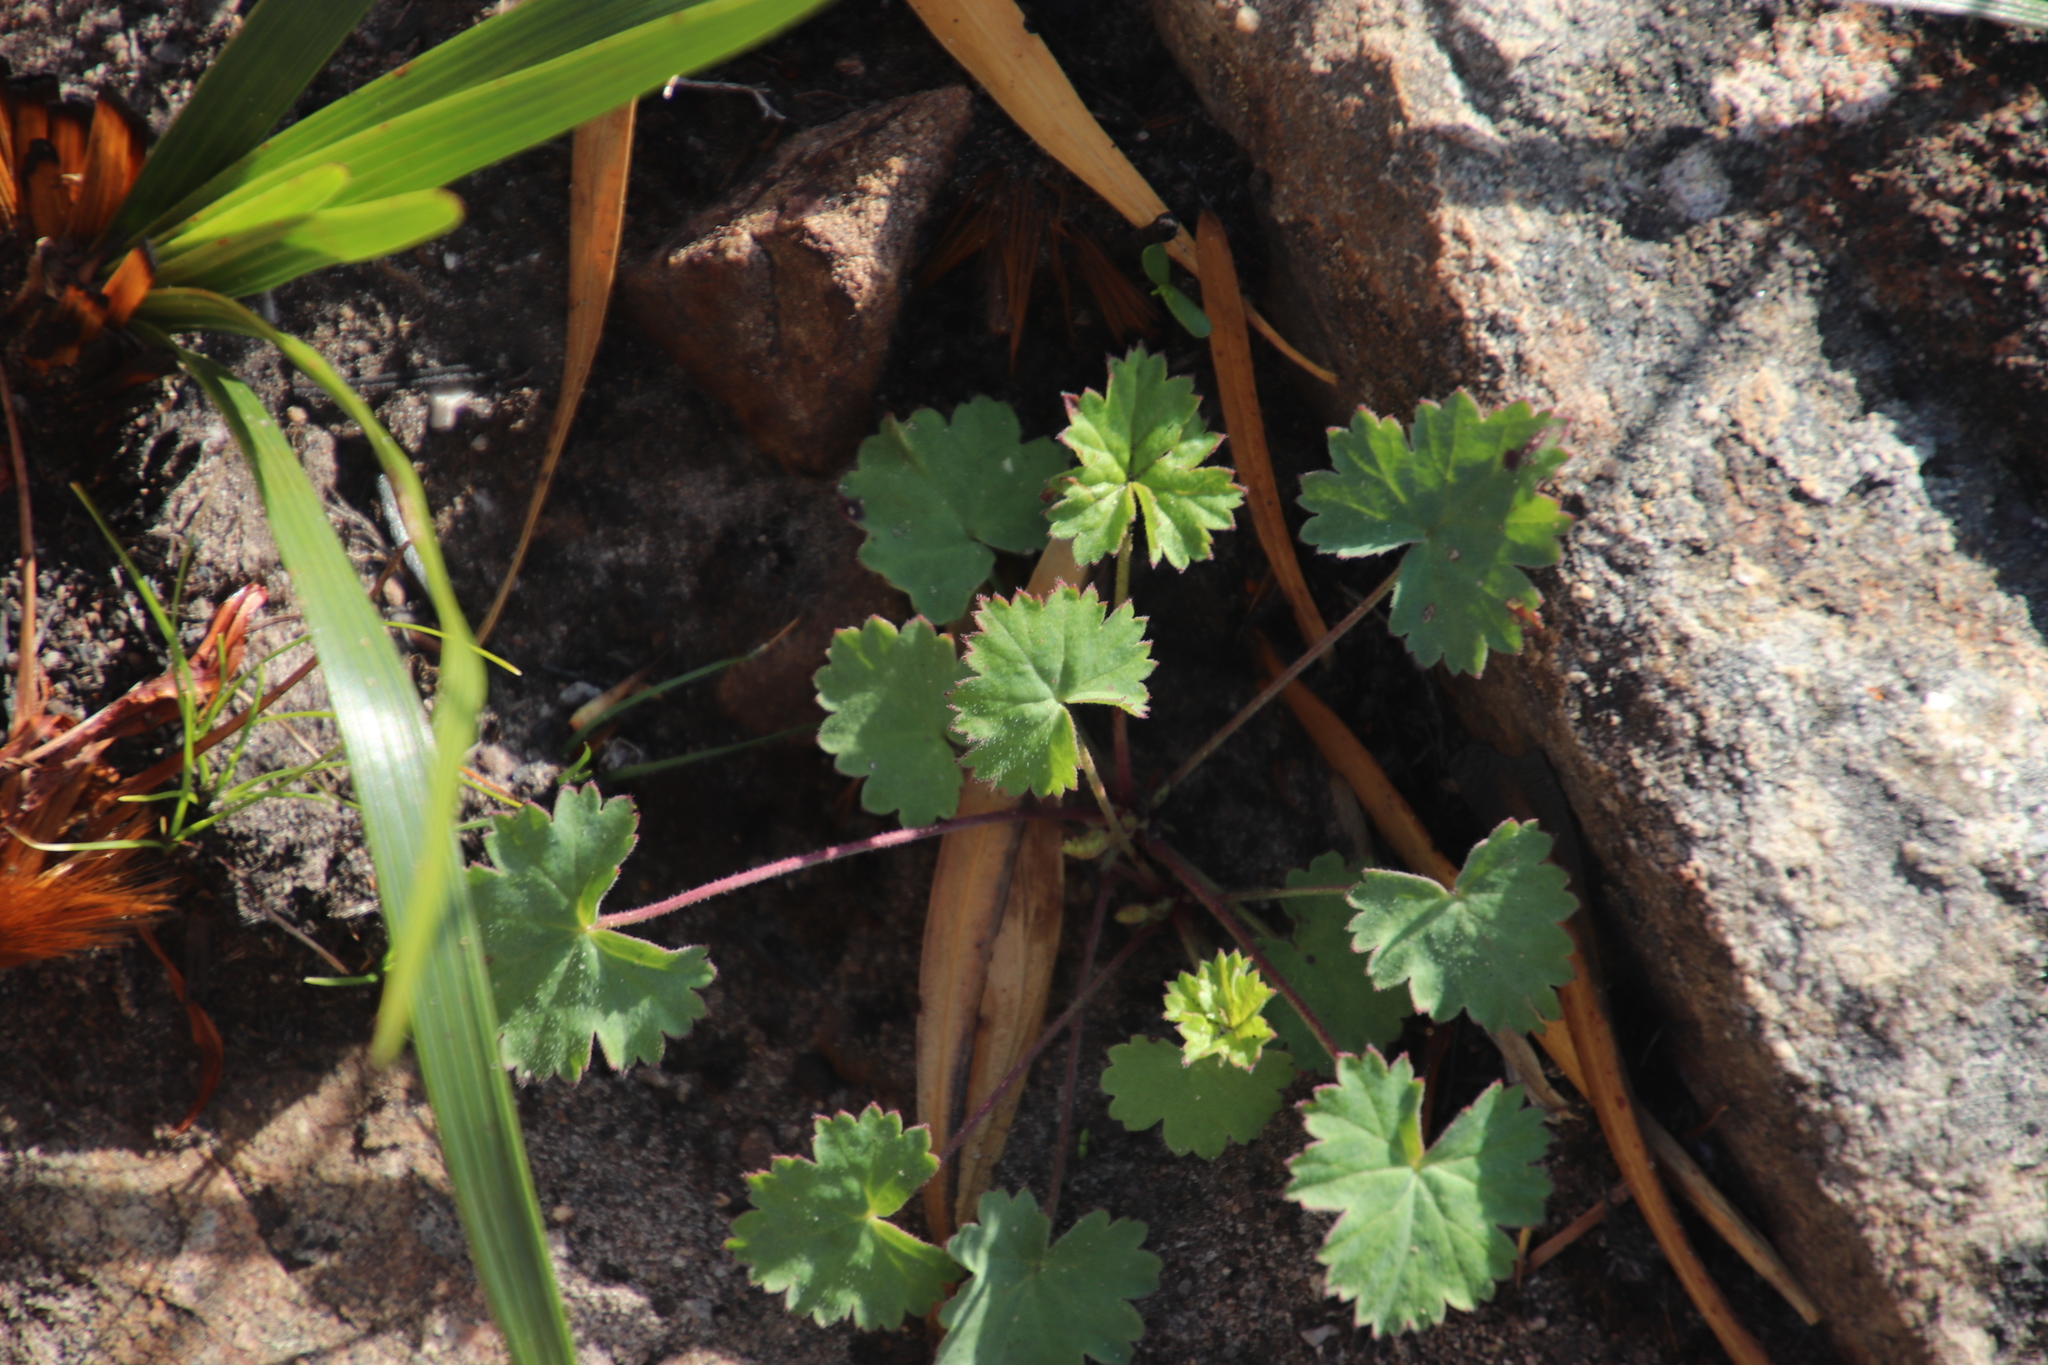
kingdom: Plantae
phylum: Tracheophyta
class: Magnoliopsida
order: Geraniales
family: Geraniaceae
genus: Pelargonium
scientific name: Pelargonium patulum
